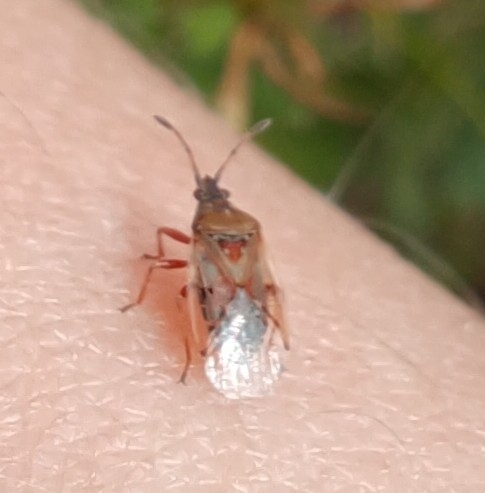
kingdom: Animalia
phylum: Arthropoda
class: Insecta
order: Hemiptera
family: Lygaeidae
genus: Kleidocerys
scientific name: Kleidocerys resedae
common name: Birch catkin bug
